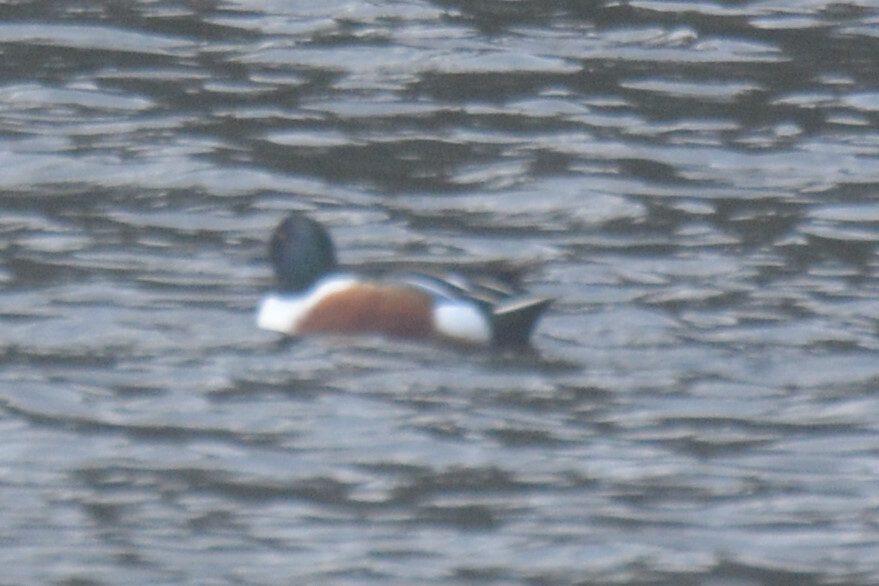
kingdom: Animalia
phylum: Chordata
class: Aves
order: Anseriformes
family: Anatidae
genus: Spatula
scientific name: Spatula clypeata
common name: Northern shoveler
